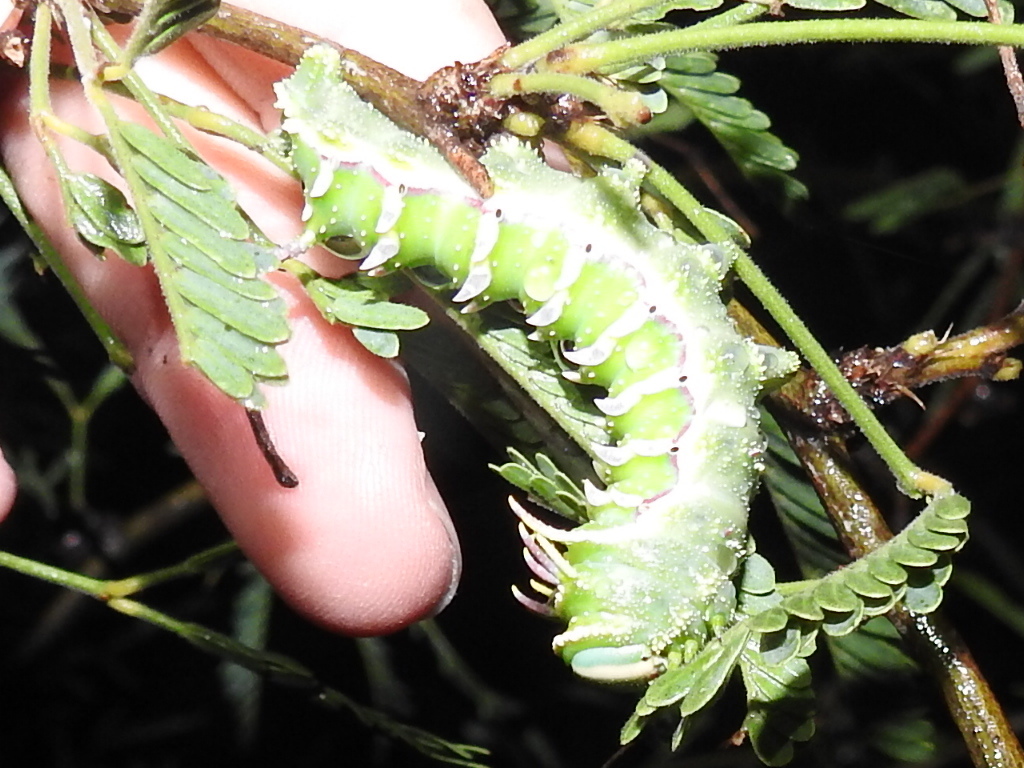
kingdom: Animalia
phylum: Arthropoda
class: Insecta
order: Lepidoptera
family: Saturniidae
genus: Syssphinx
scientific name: Syssphinx hubbardi
